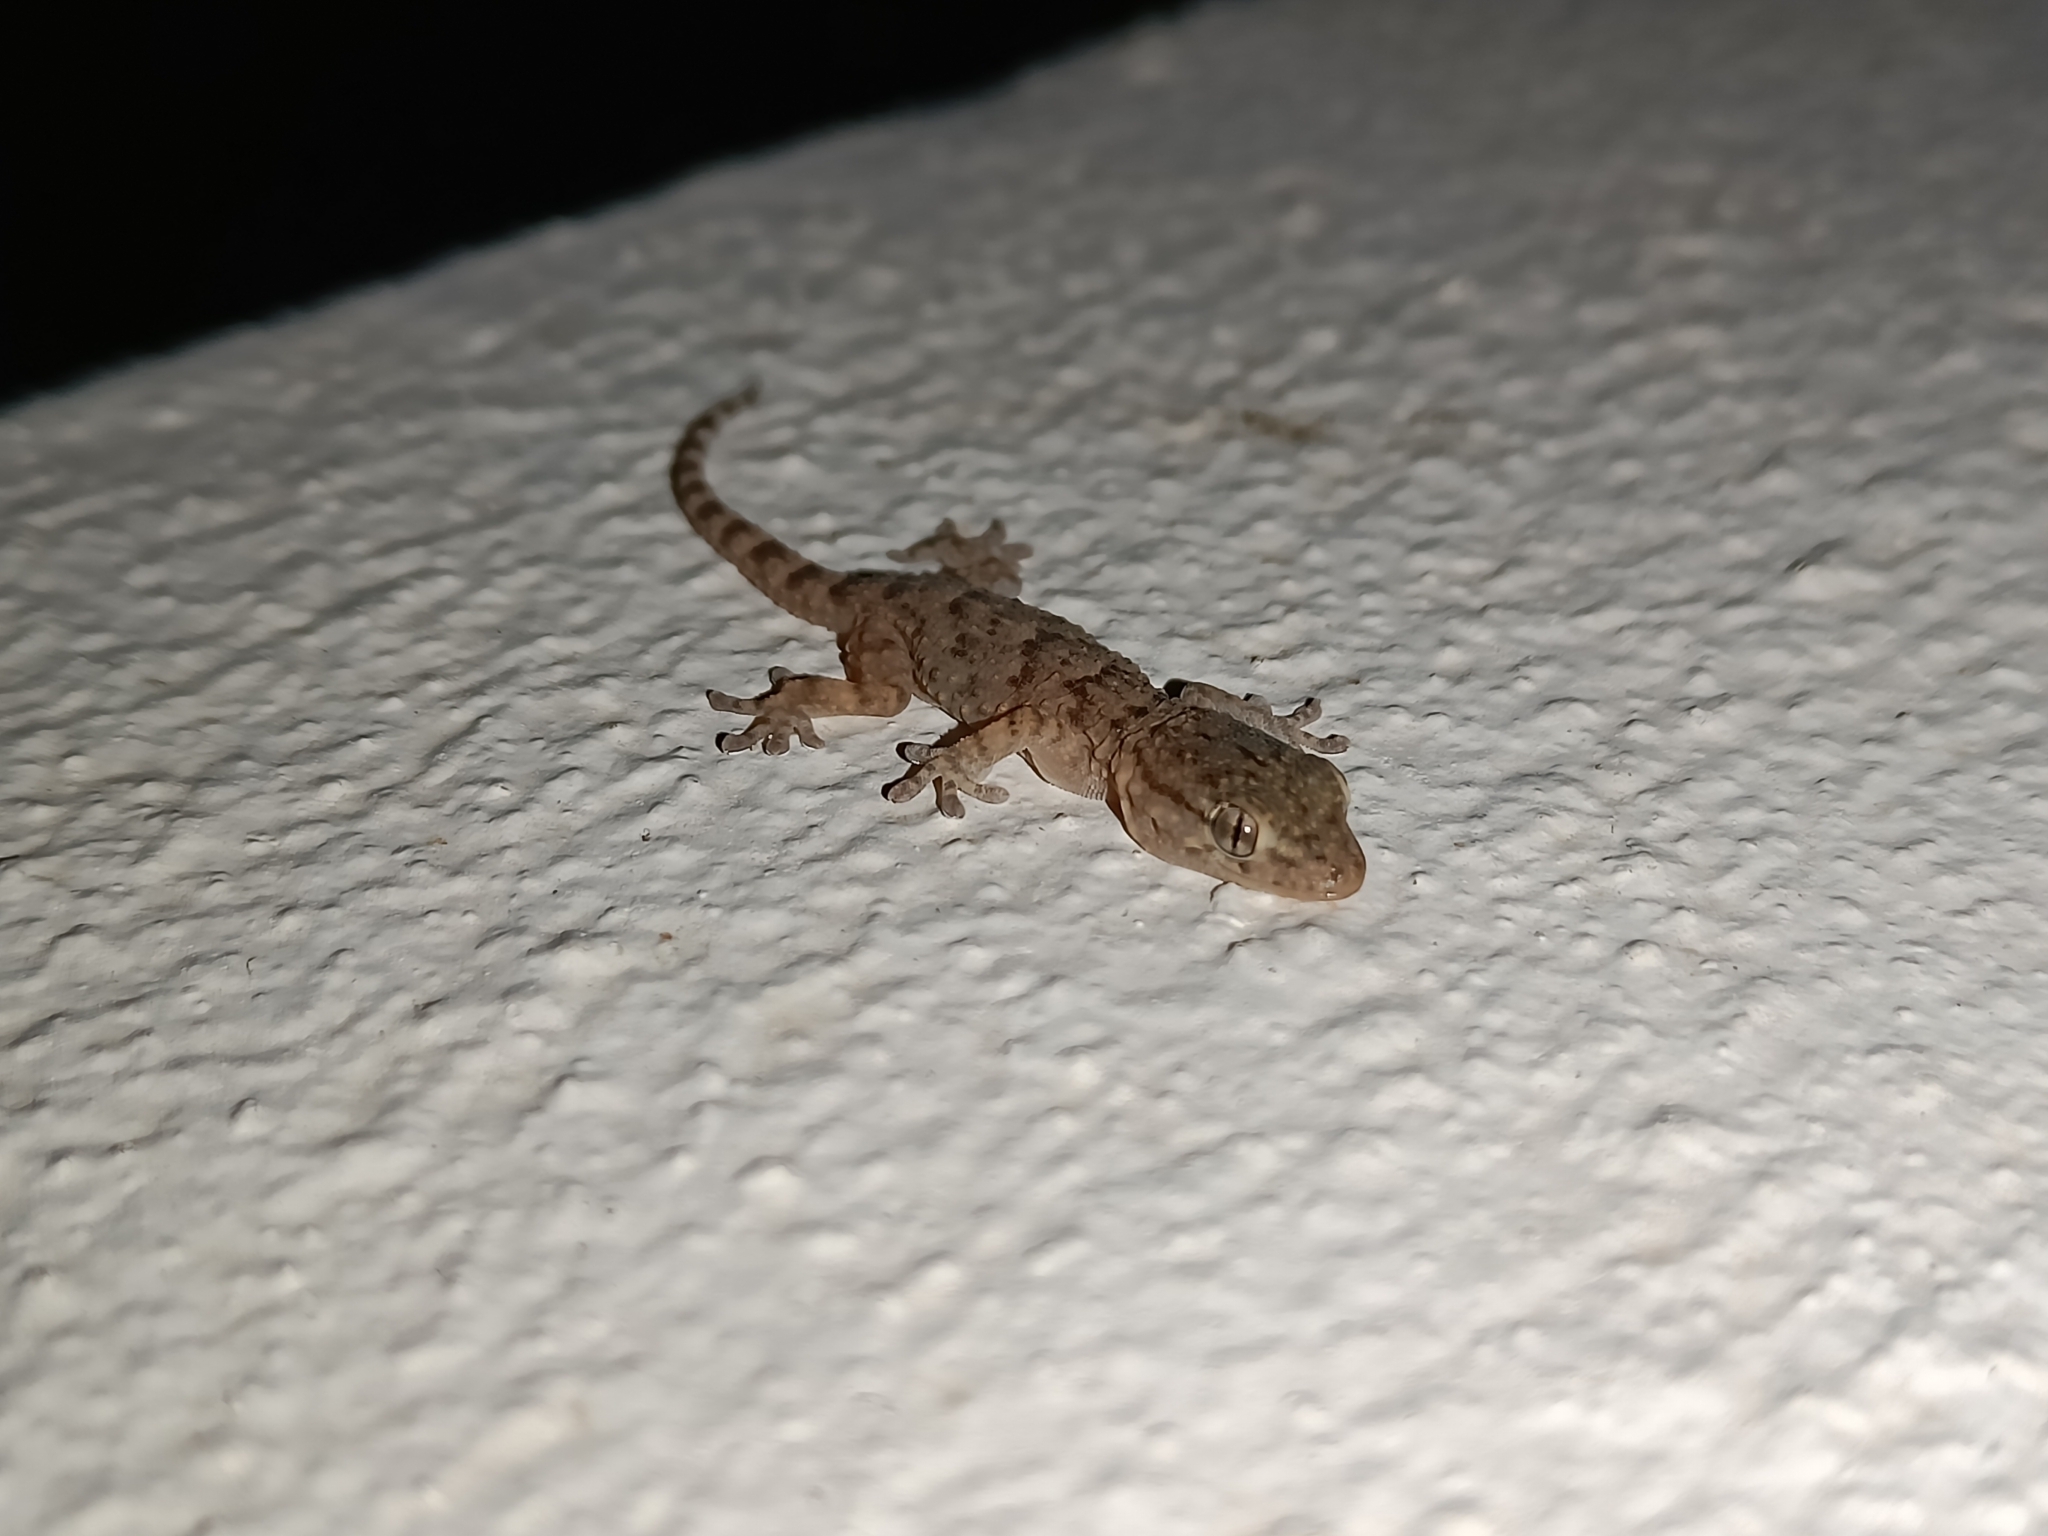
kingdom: Animalia
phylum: Chordata
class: Squamata
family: Phyllodactylidae
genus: Tarentola
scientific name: Tarentola mauritanica
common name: Moorish gecko
